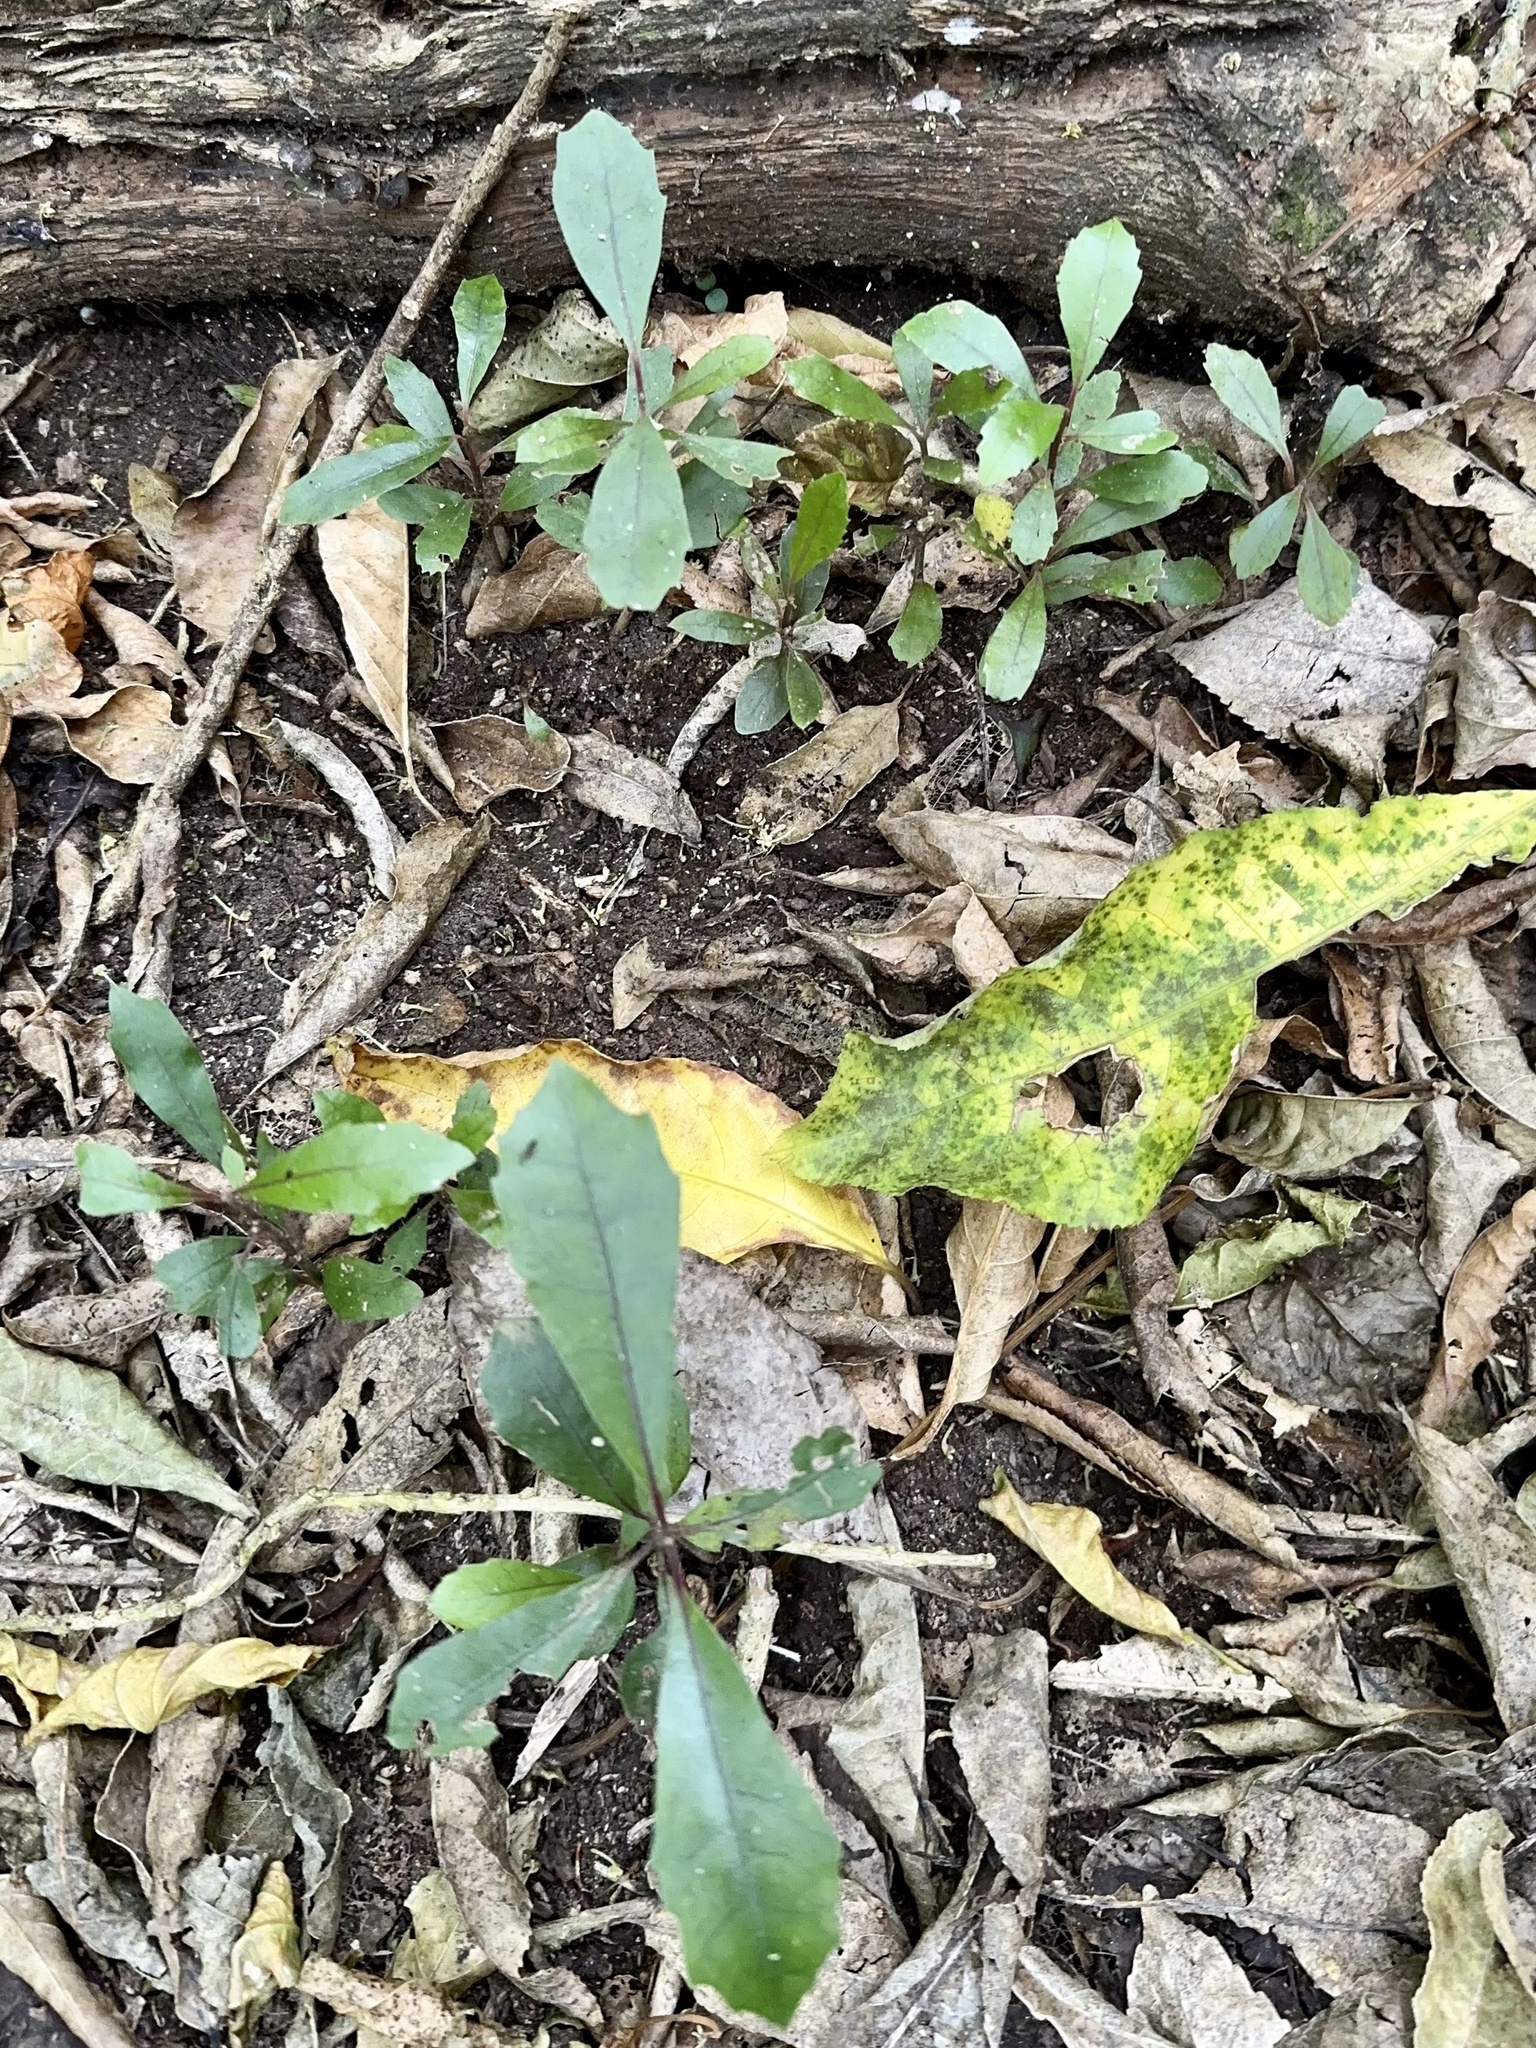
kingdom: Plantae
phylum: Tracheophyta
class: Magnoliopsida
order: Laurales
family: Monimiaceae
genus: Hedycarya
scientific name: Hedycarya arborea
